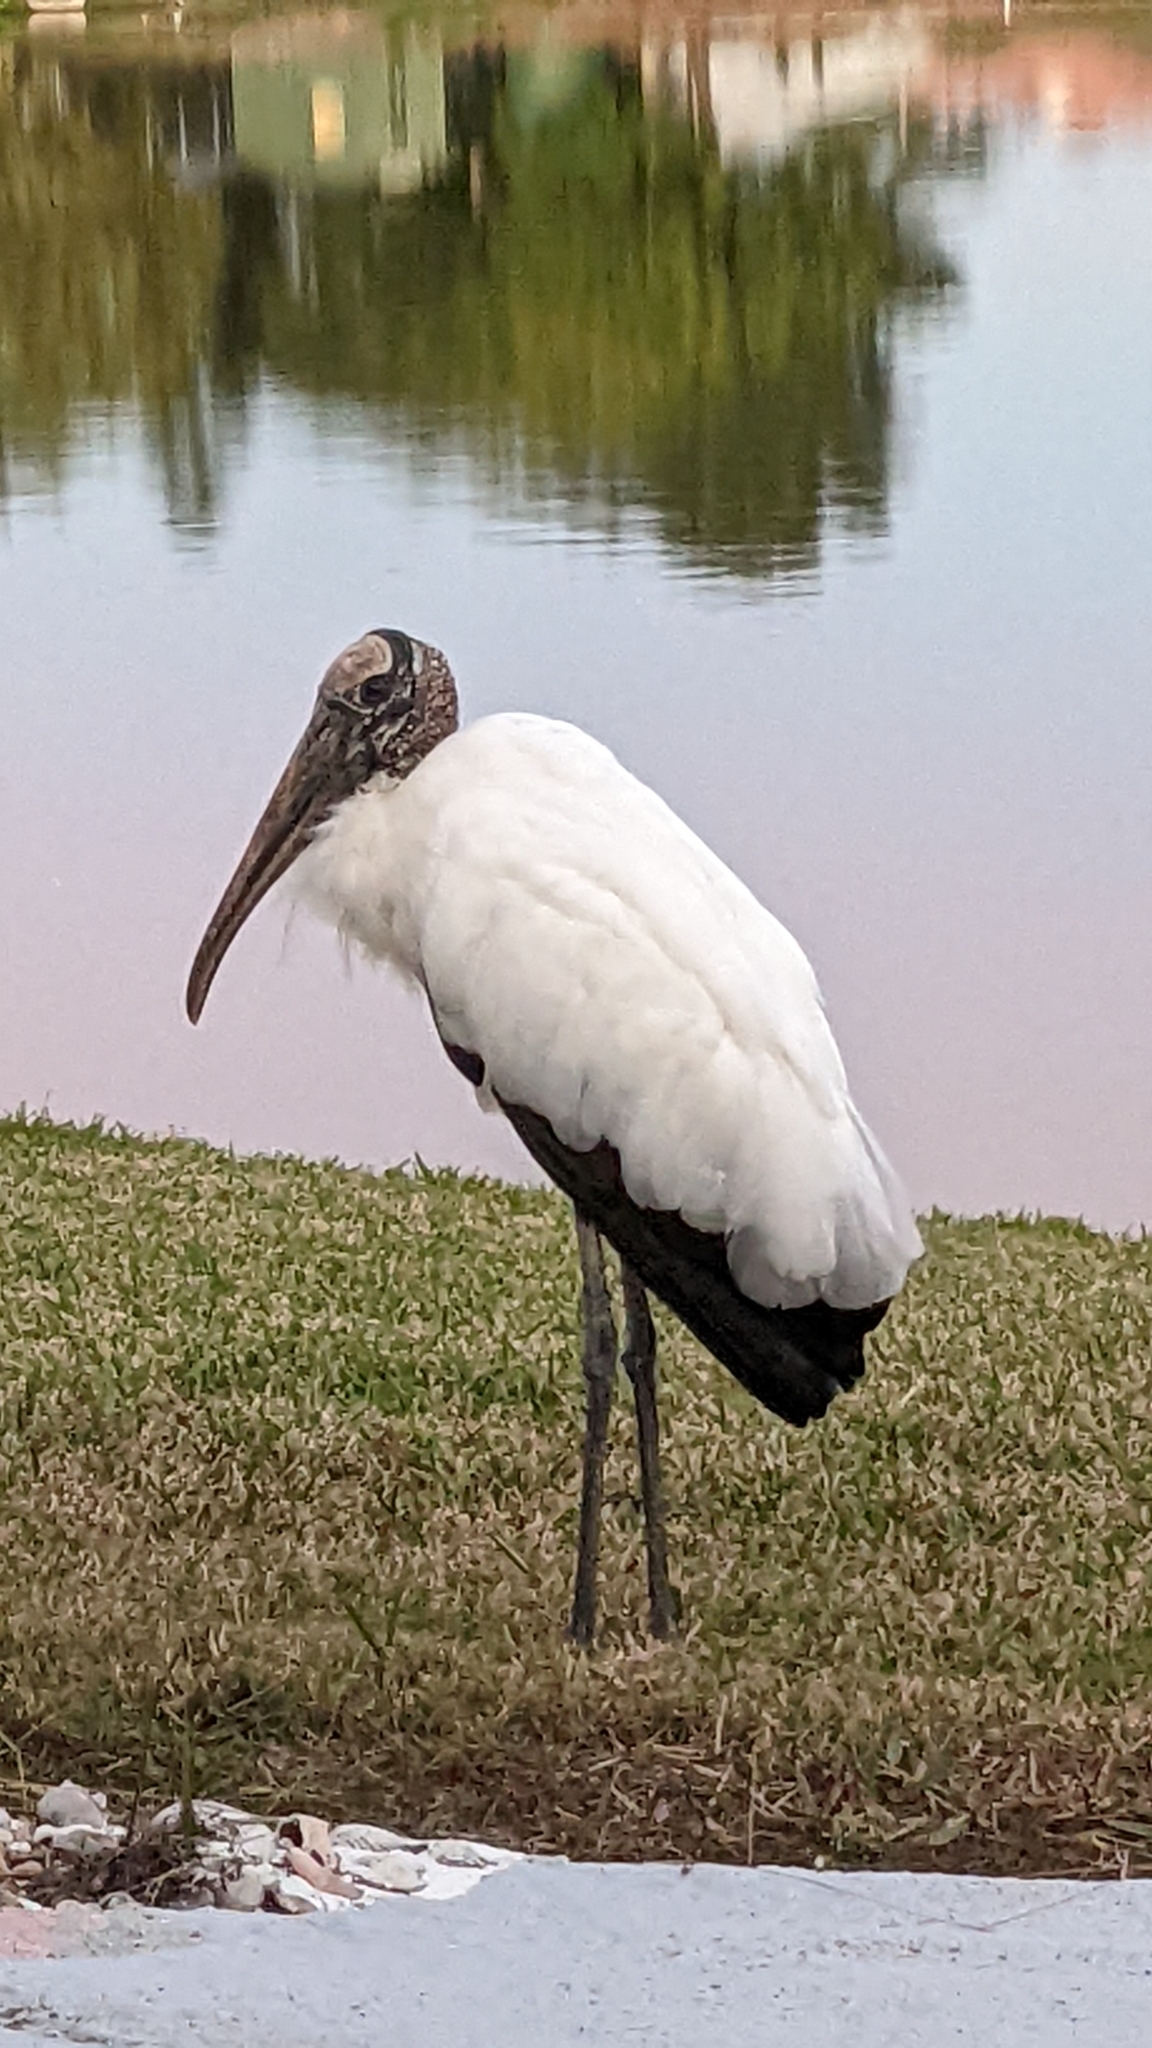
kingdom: Animalia
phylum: Chordata
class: Aves
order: Ciconiiformes
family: Ciconiidae
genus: Mycteria
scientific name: Mycteria americana
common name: Wood stork
